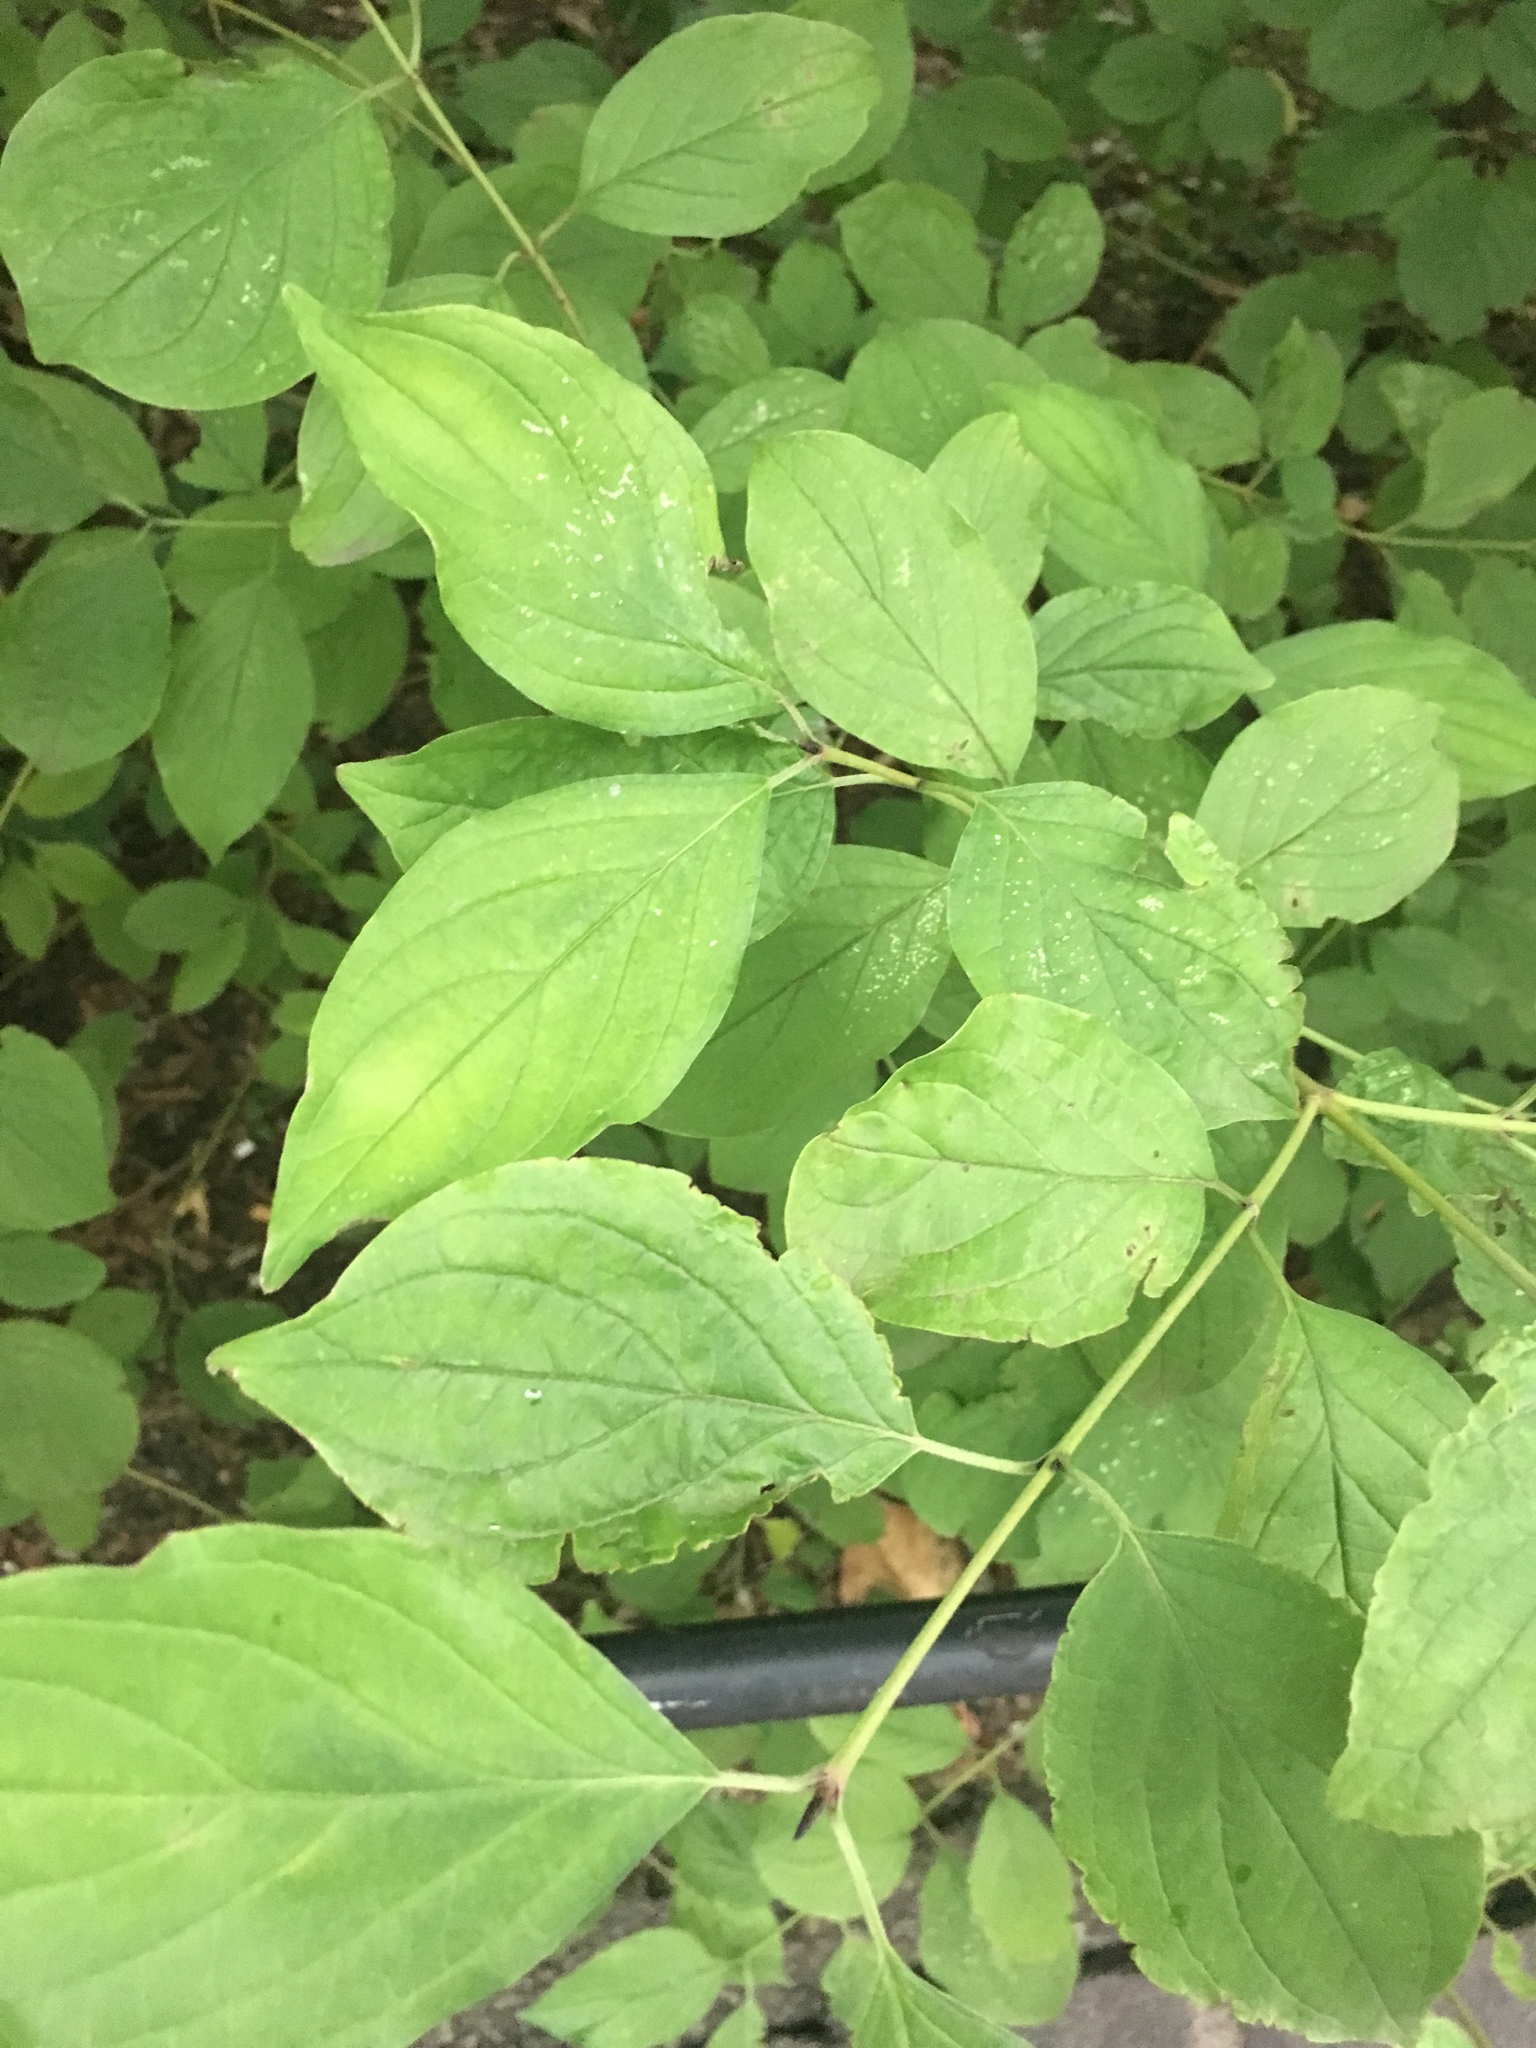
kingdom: Plantae
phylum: Tracheophyta
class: Magnoliopsida
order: Cornales
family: Cornaceae
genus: Cornus
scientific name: Cornus sanguinea
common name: Dogwood
